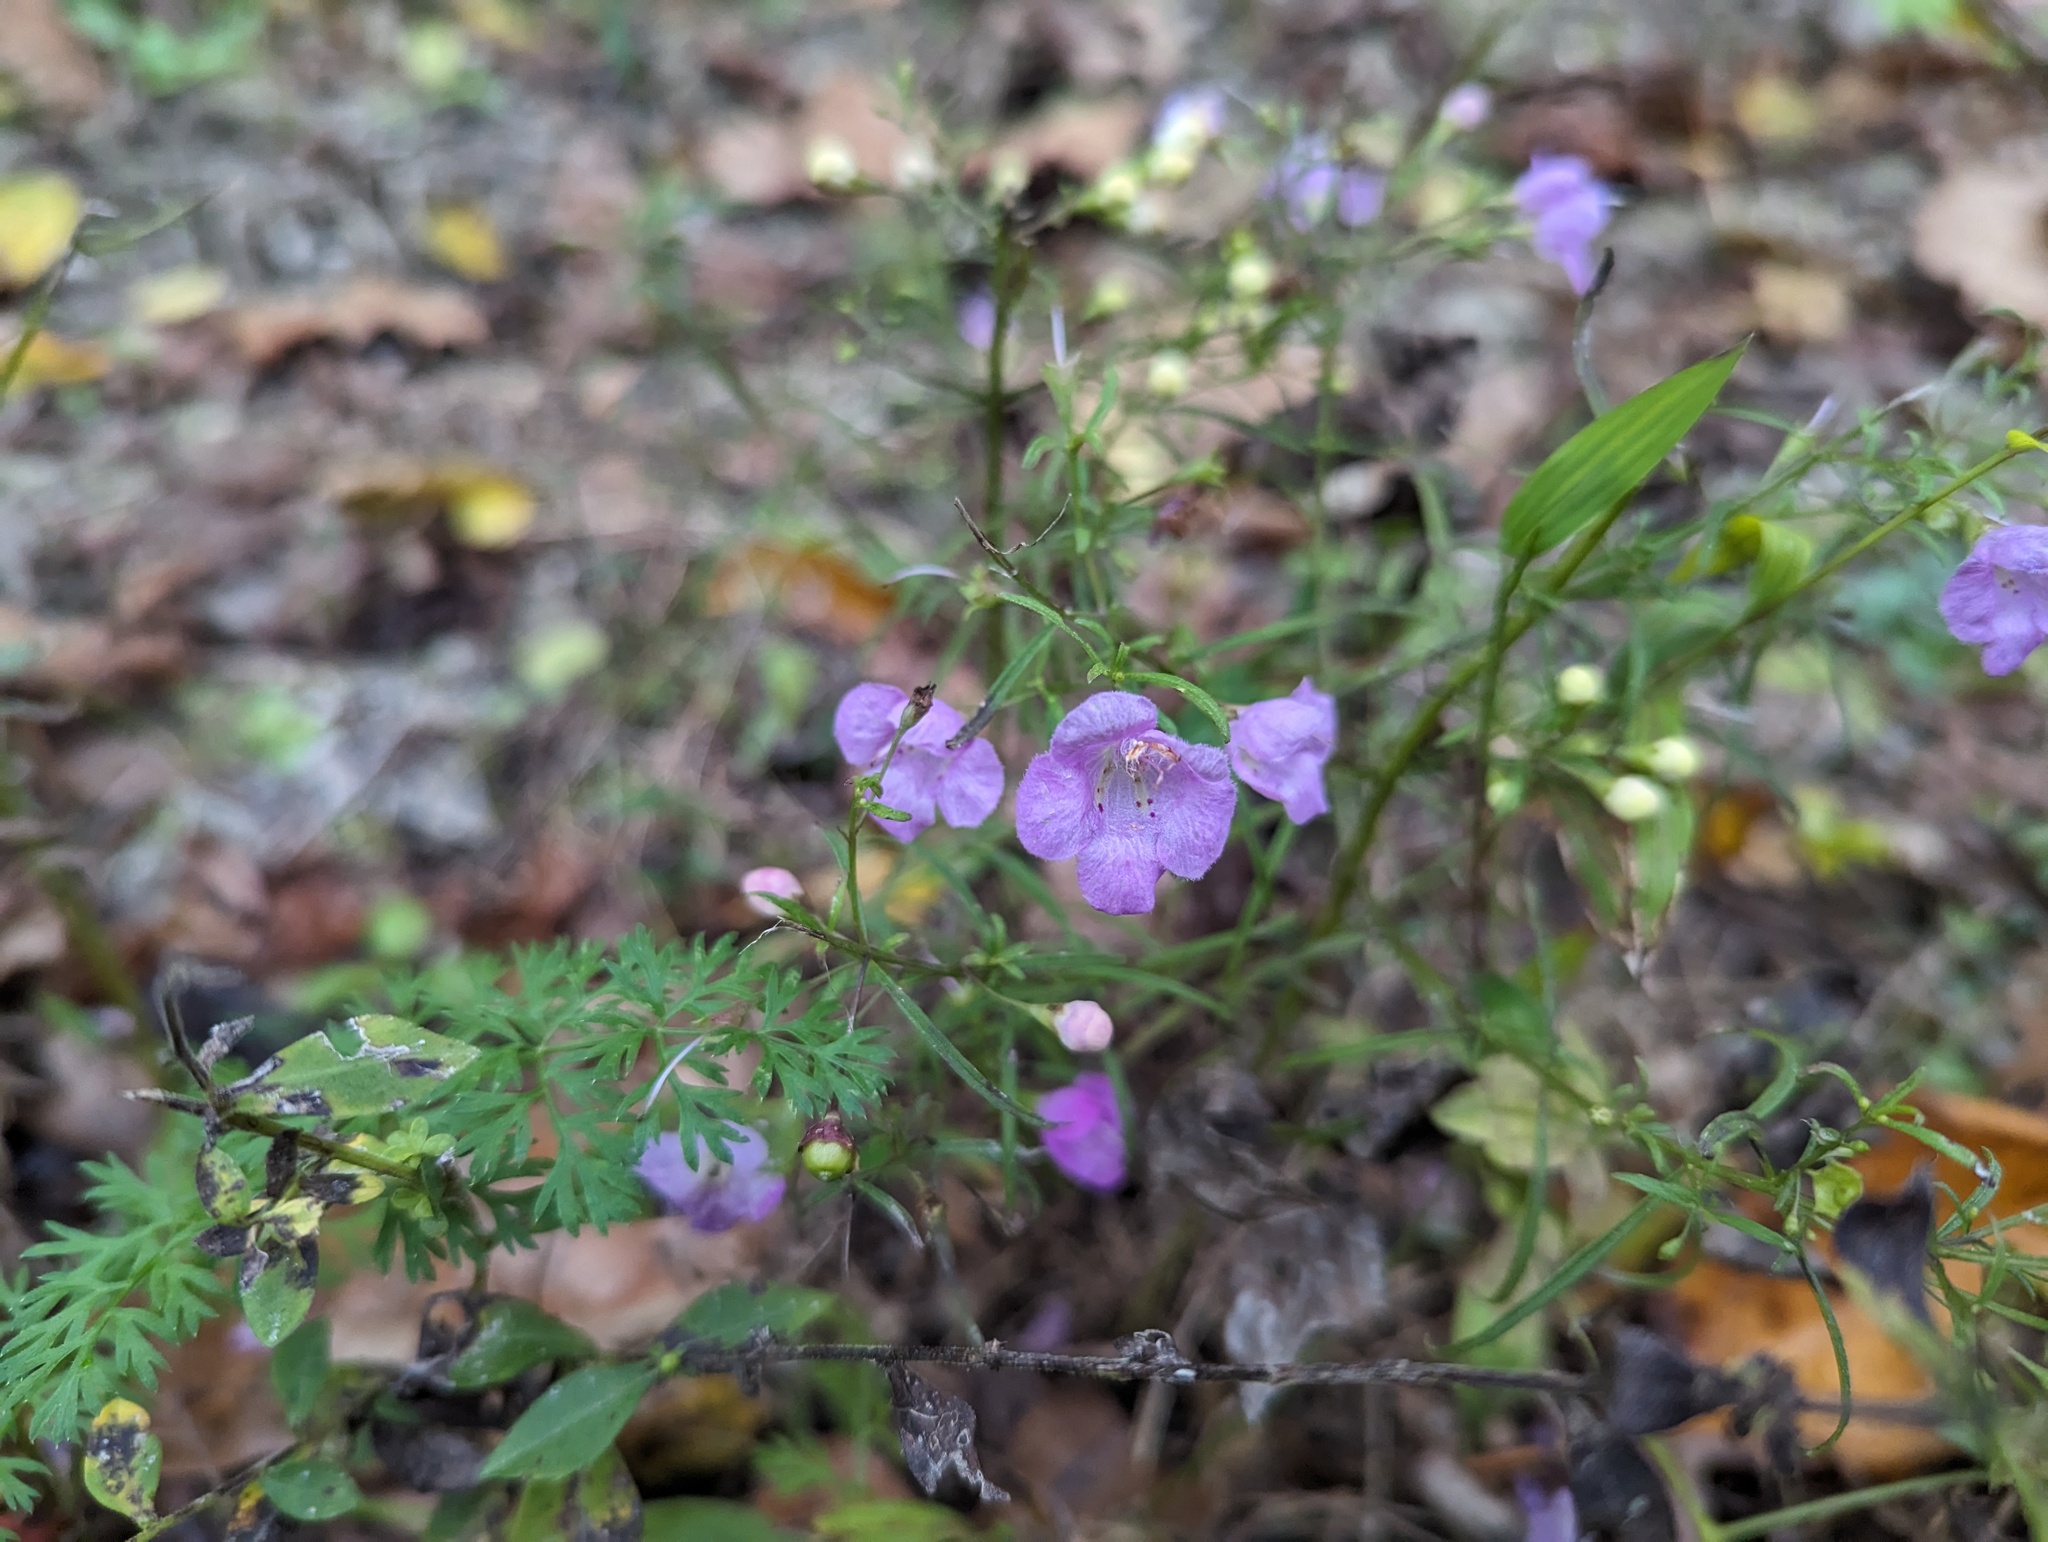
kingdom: Plantae
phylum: Tracheophyta
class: Magnoliopsida
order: Lamiales
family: Orobanchaceae
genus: Agalinis
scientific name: Agalinis tenuifolia
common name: Slender agalinis
